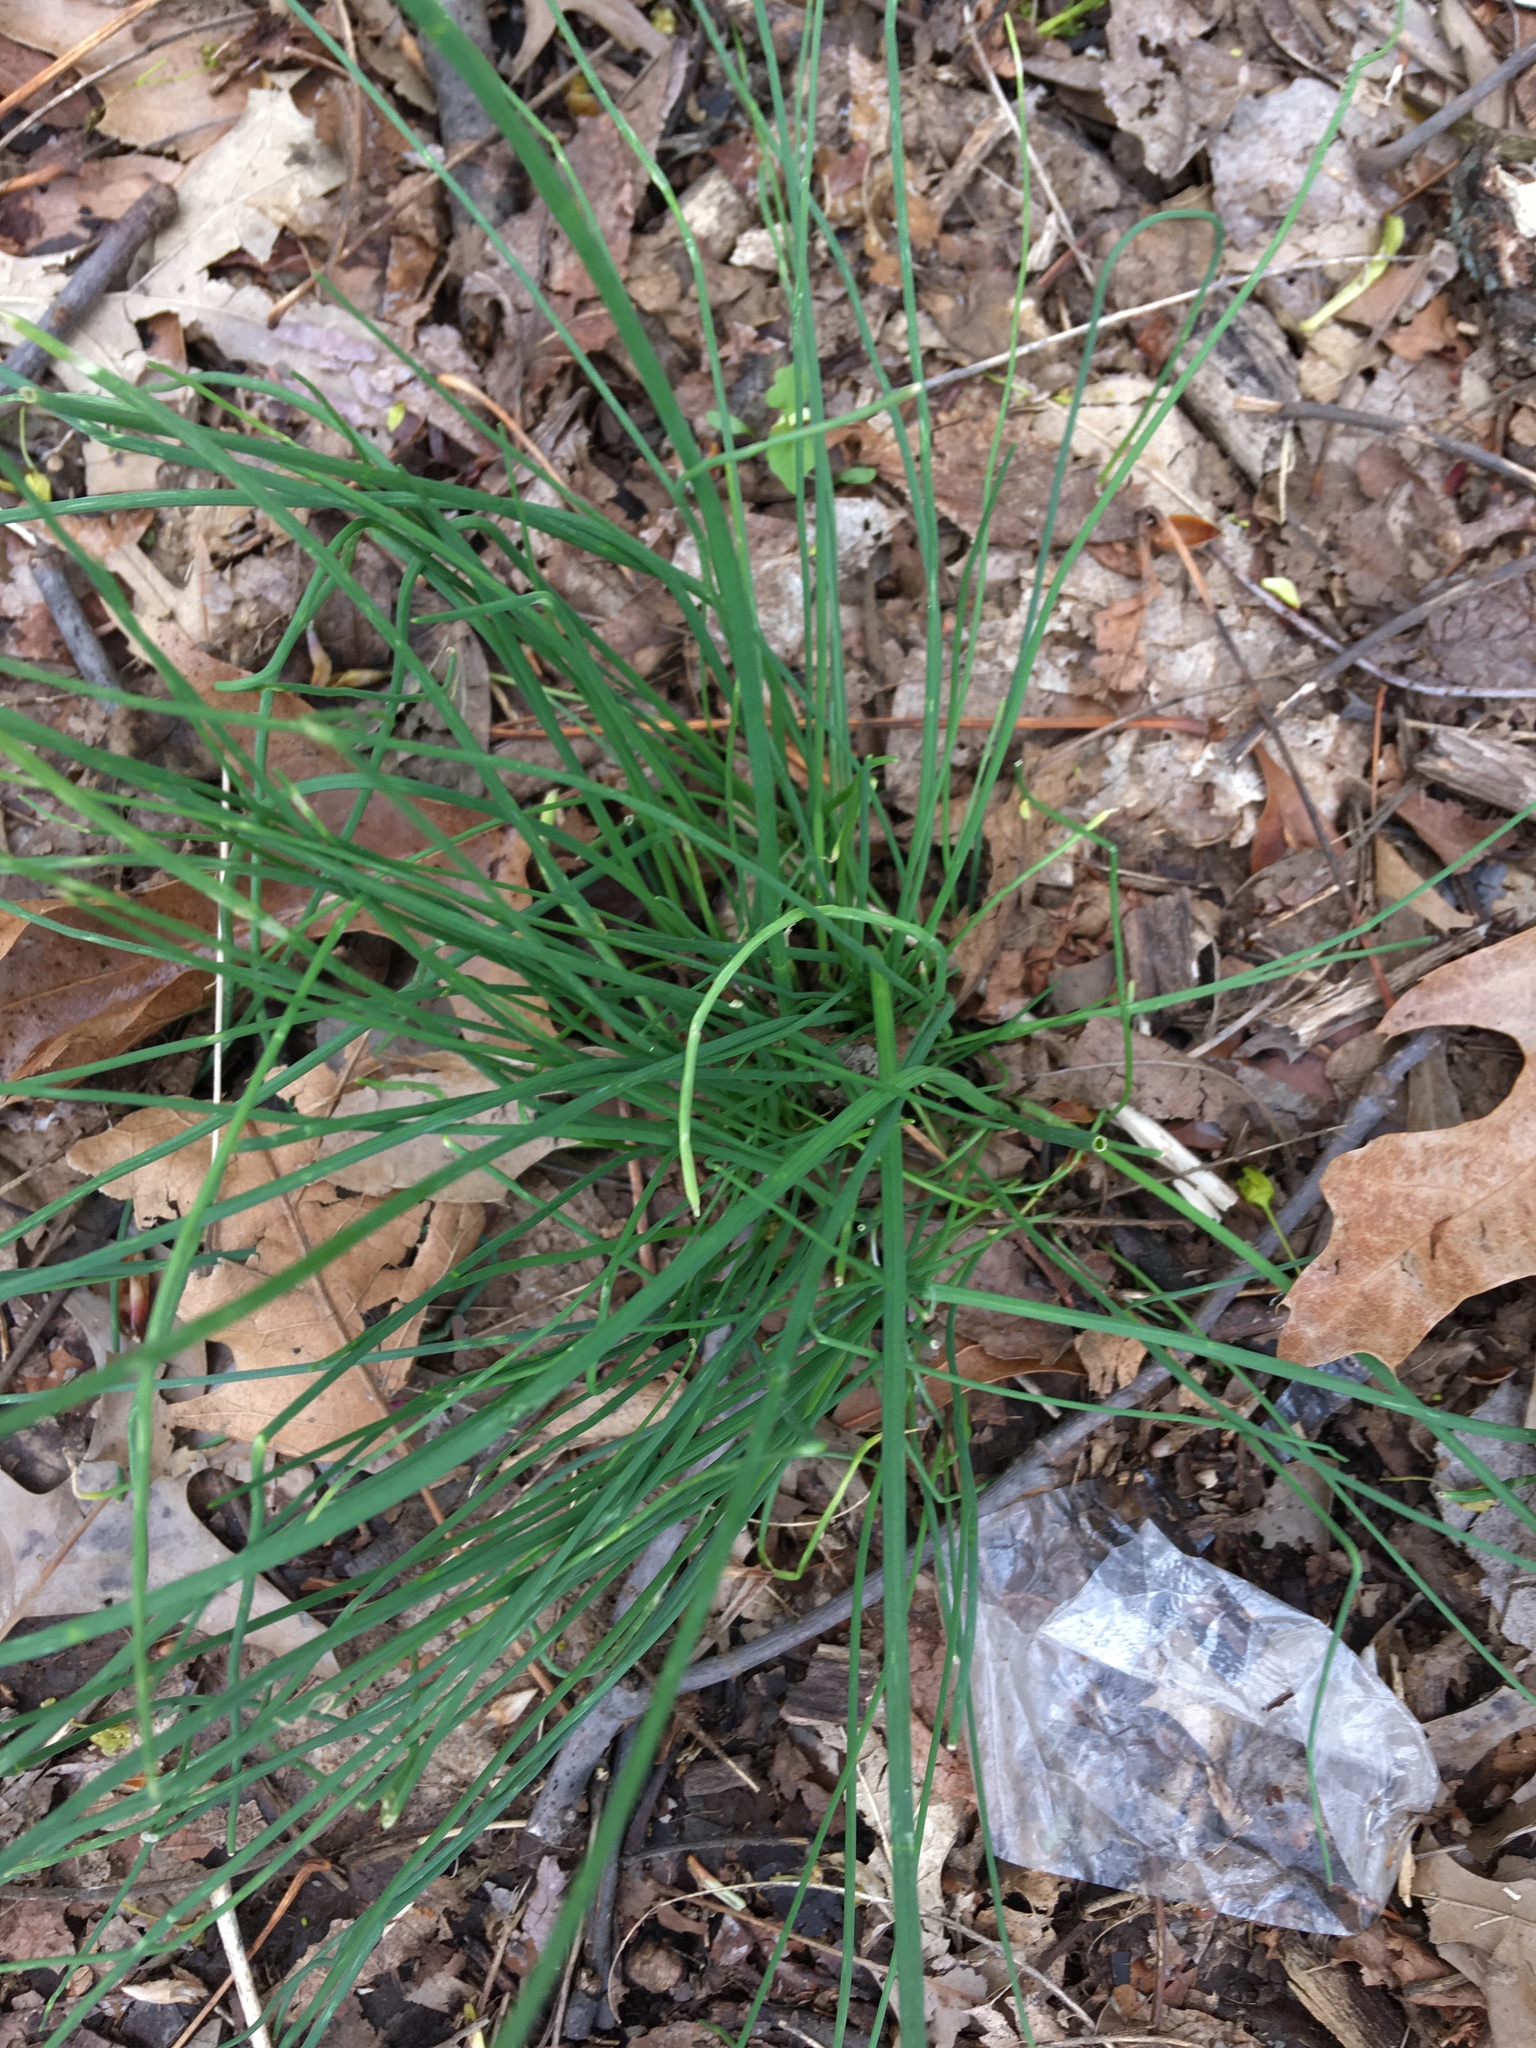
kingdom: Plantae
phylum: Tracheophyta
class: Liliopsida
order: Asparagales
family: Amaryllidaceae
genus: Allium
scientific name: Allium vineale
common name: Crow garlic
